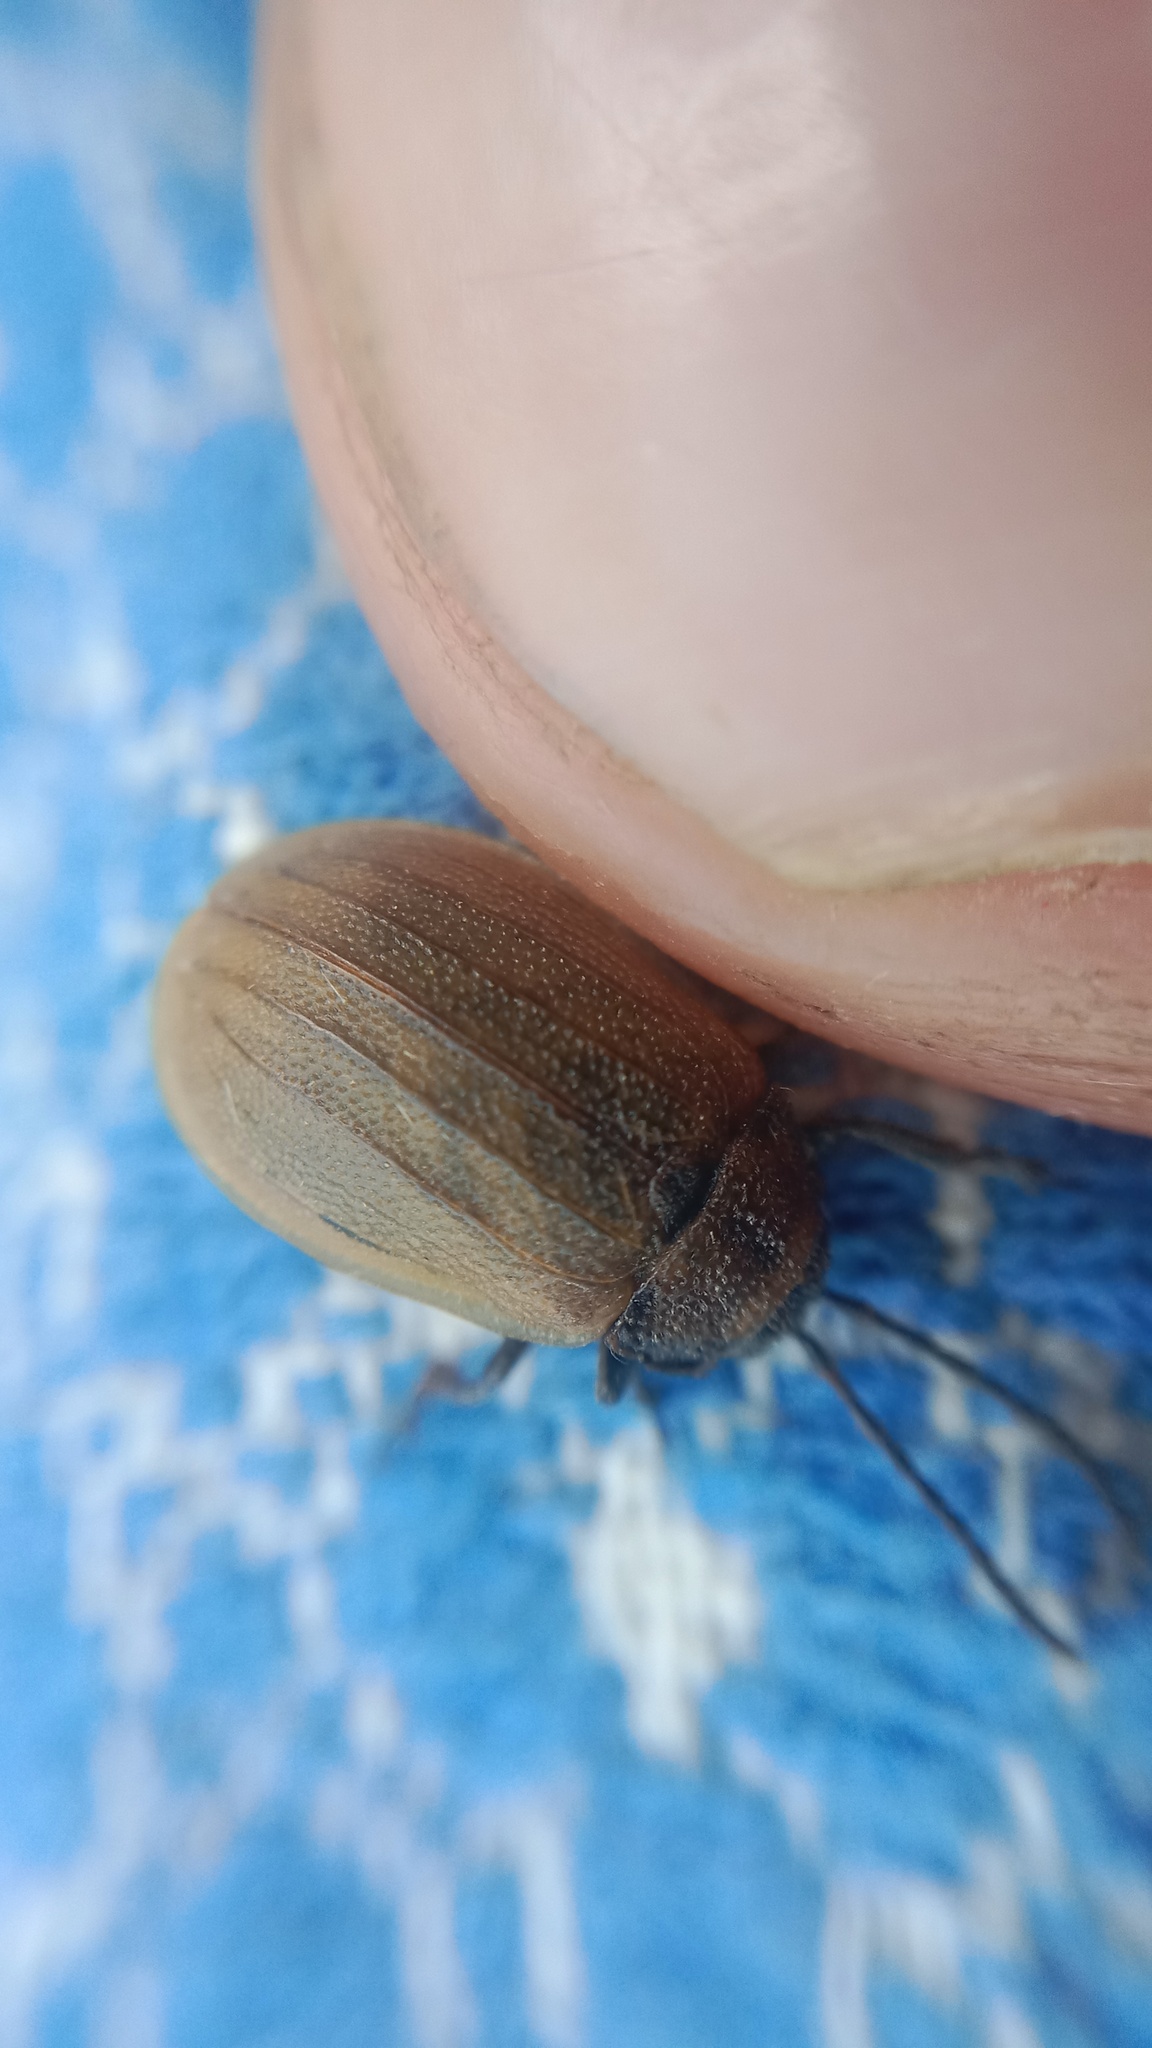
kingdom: Animalia
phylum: Arthropoda
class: Insecta
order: Coleoptera
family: Chrysomelidae
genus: Galeruca
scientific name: Galeruca pomonae
